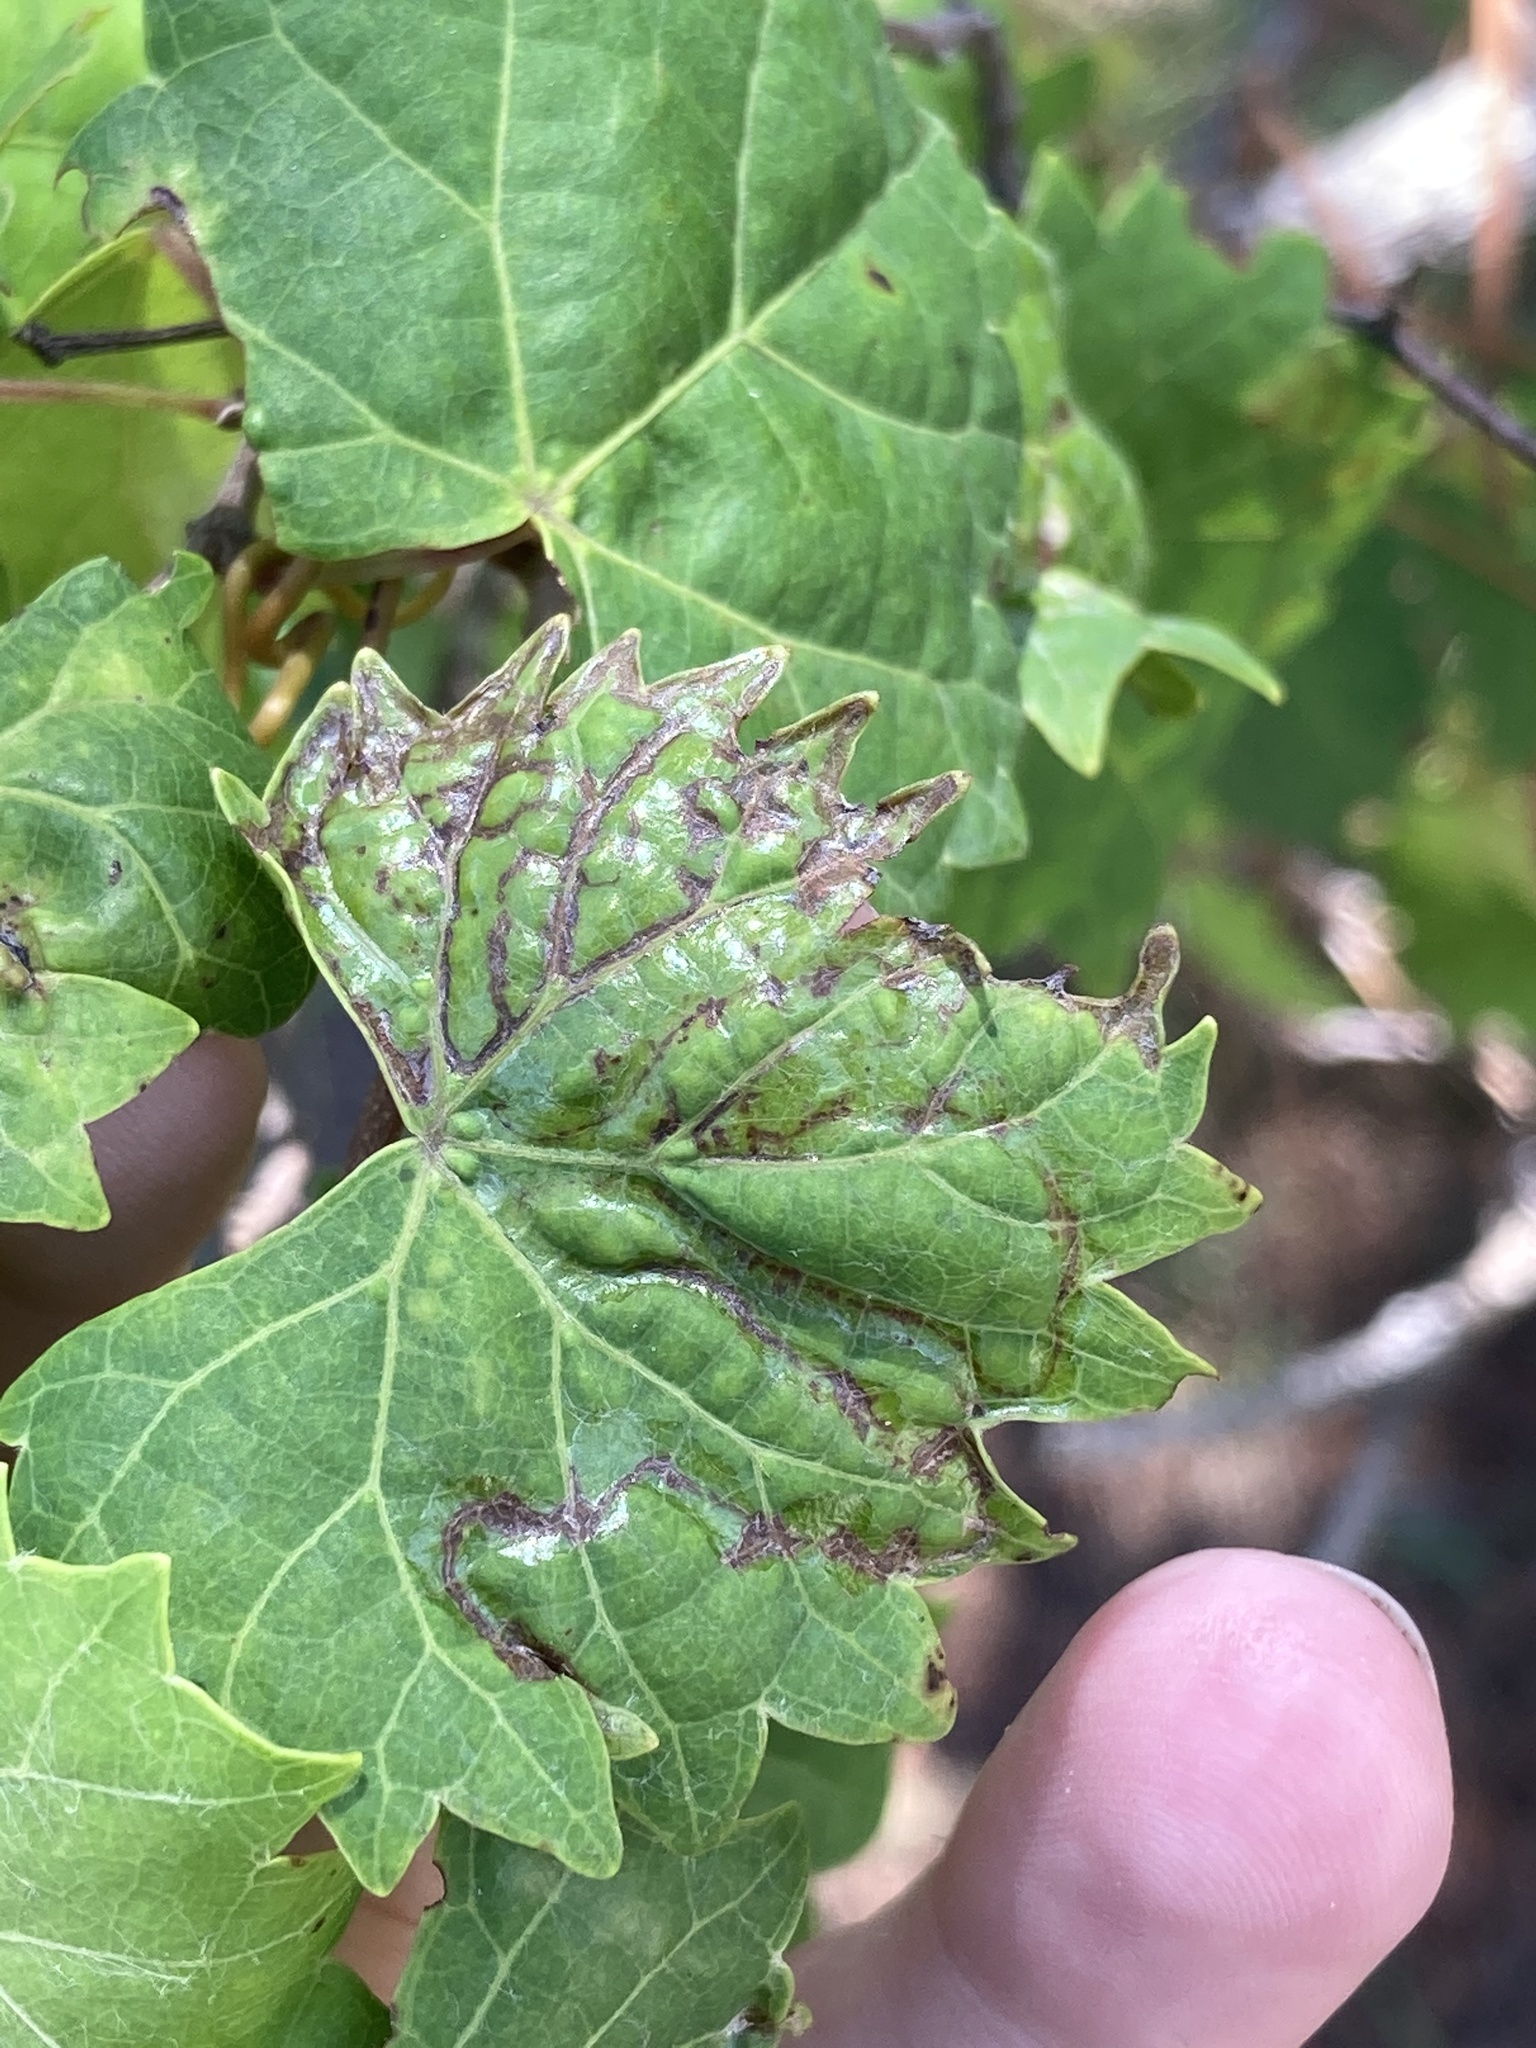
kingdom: Animalia
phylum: Arthropoda
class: Insecta
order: Lepidoptera
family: Gracillariidae
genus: Phyllocnistis
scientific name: Phyllocnistis vitegenella
